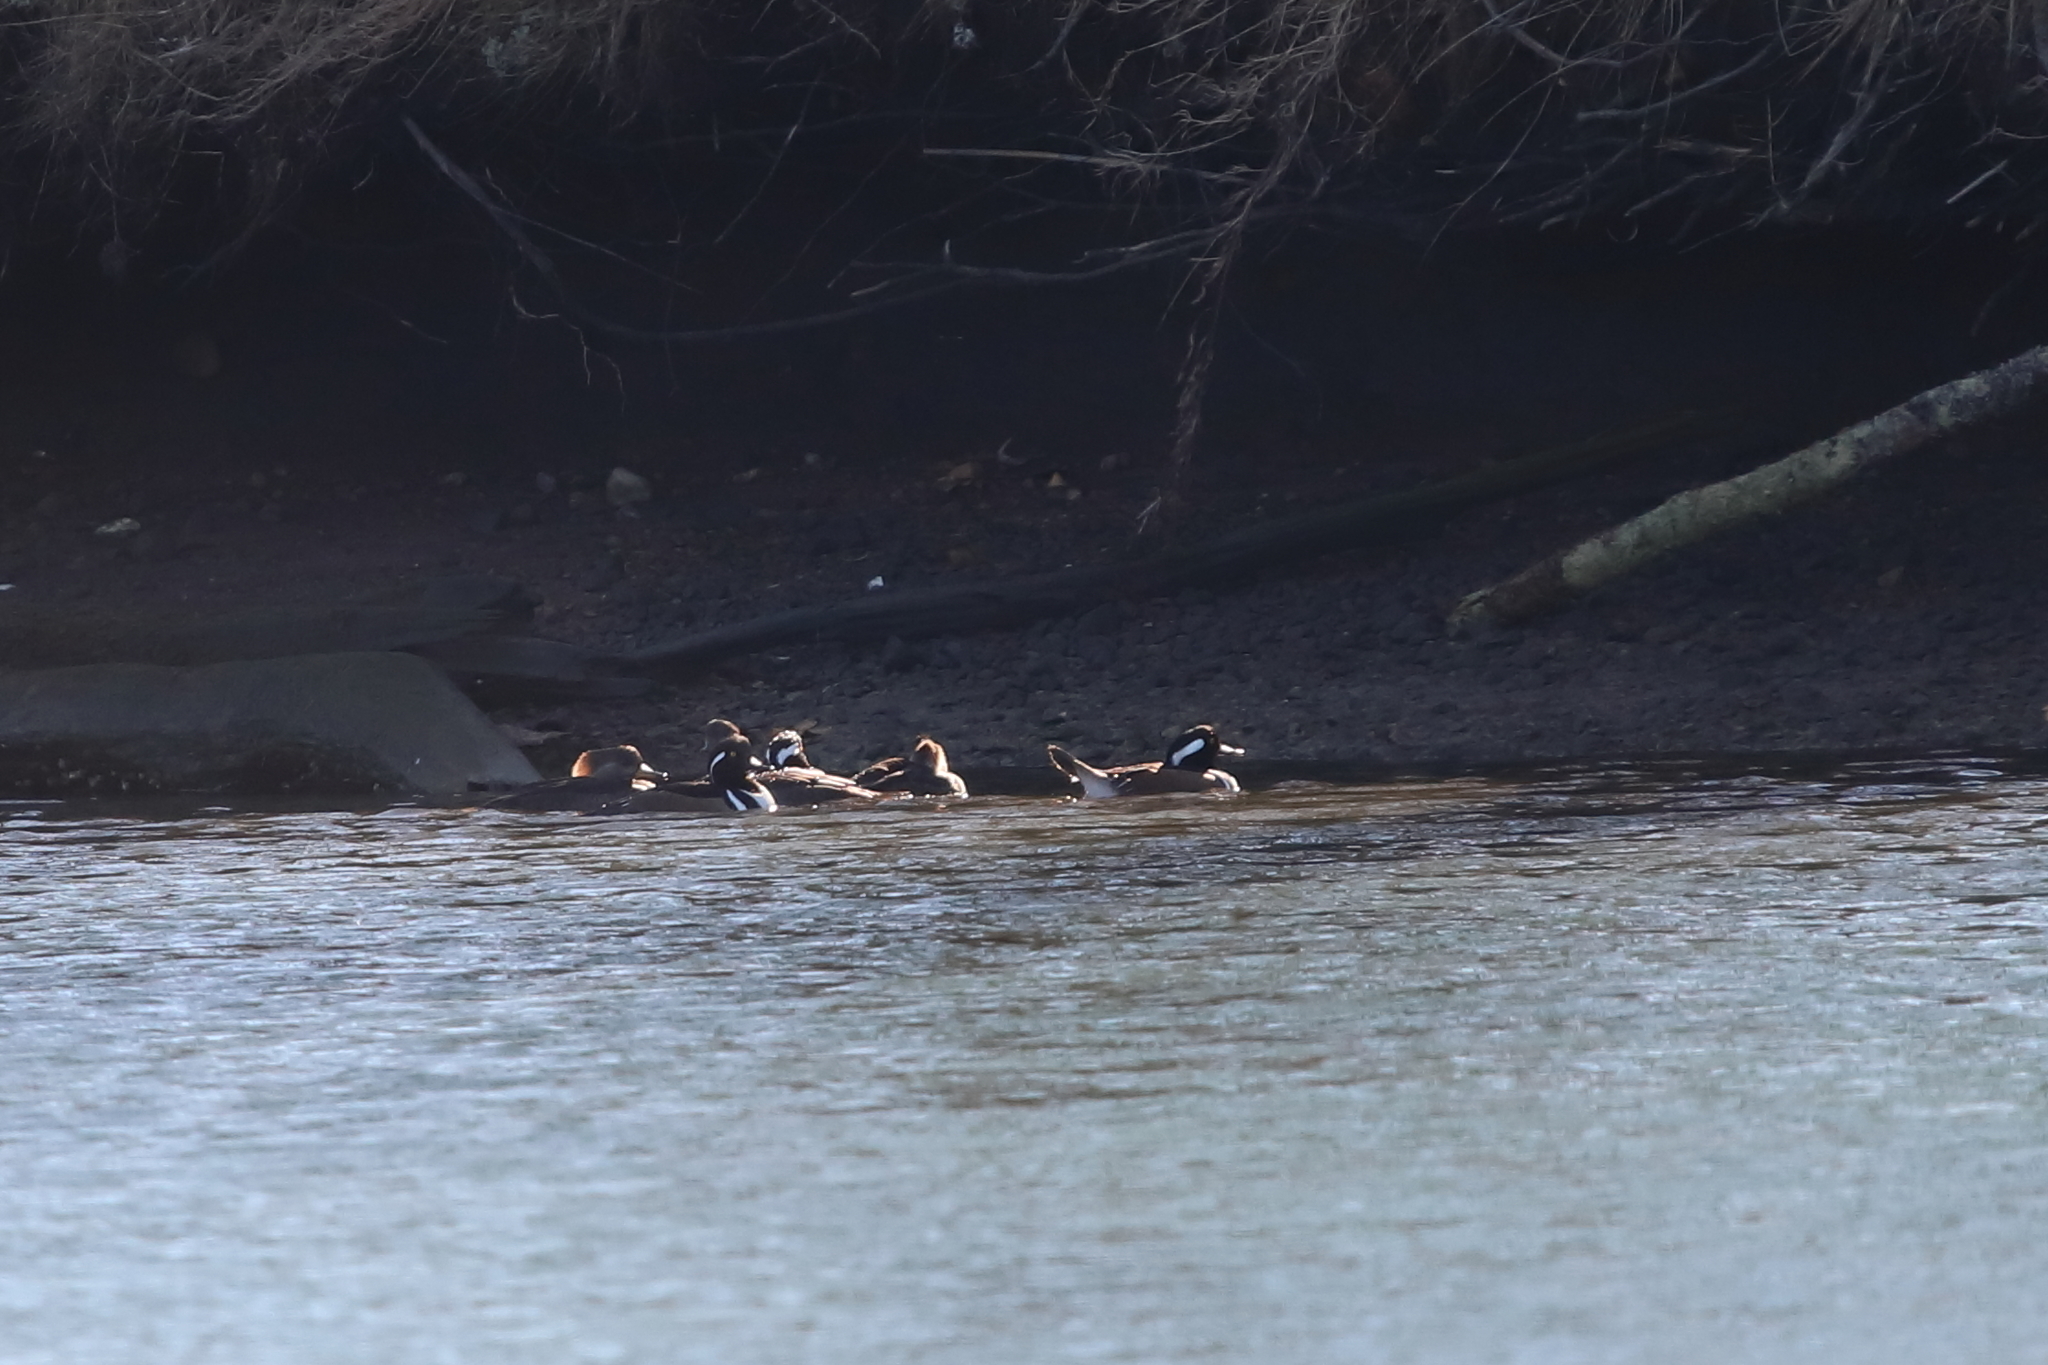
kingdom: Animalia
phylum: Chordata
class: Aves
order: Anseriformes
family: Anatidae
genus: Lophodytes
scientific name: Lophodytes cucullatus
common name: Hooded merganser
